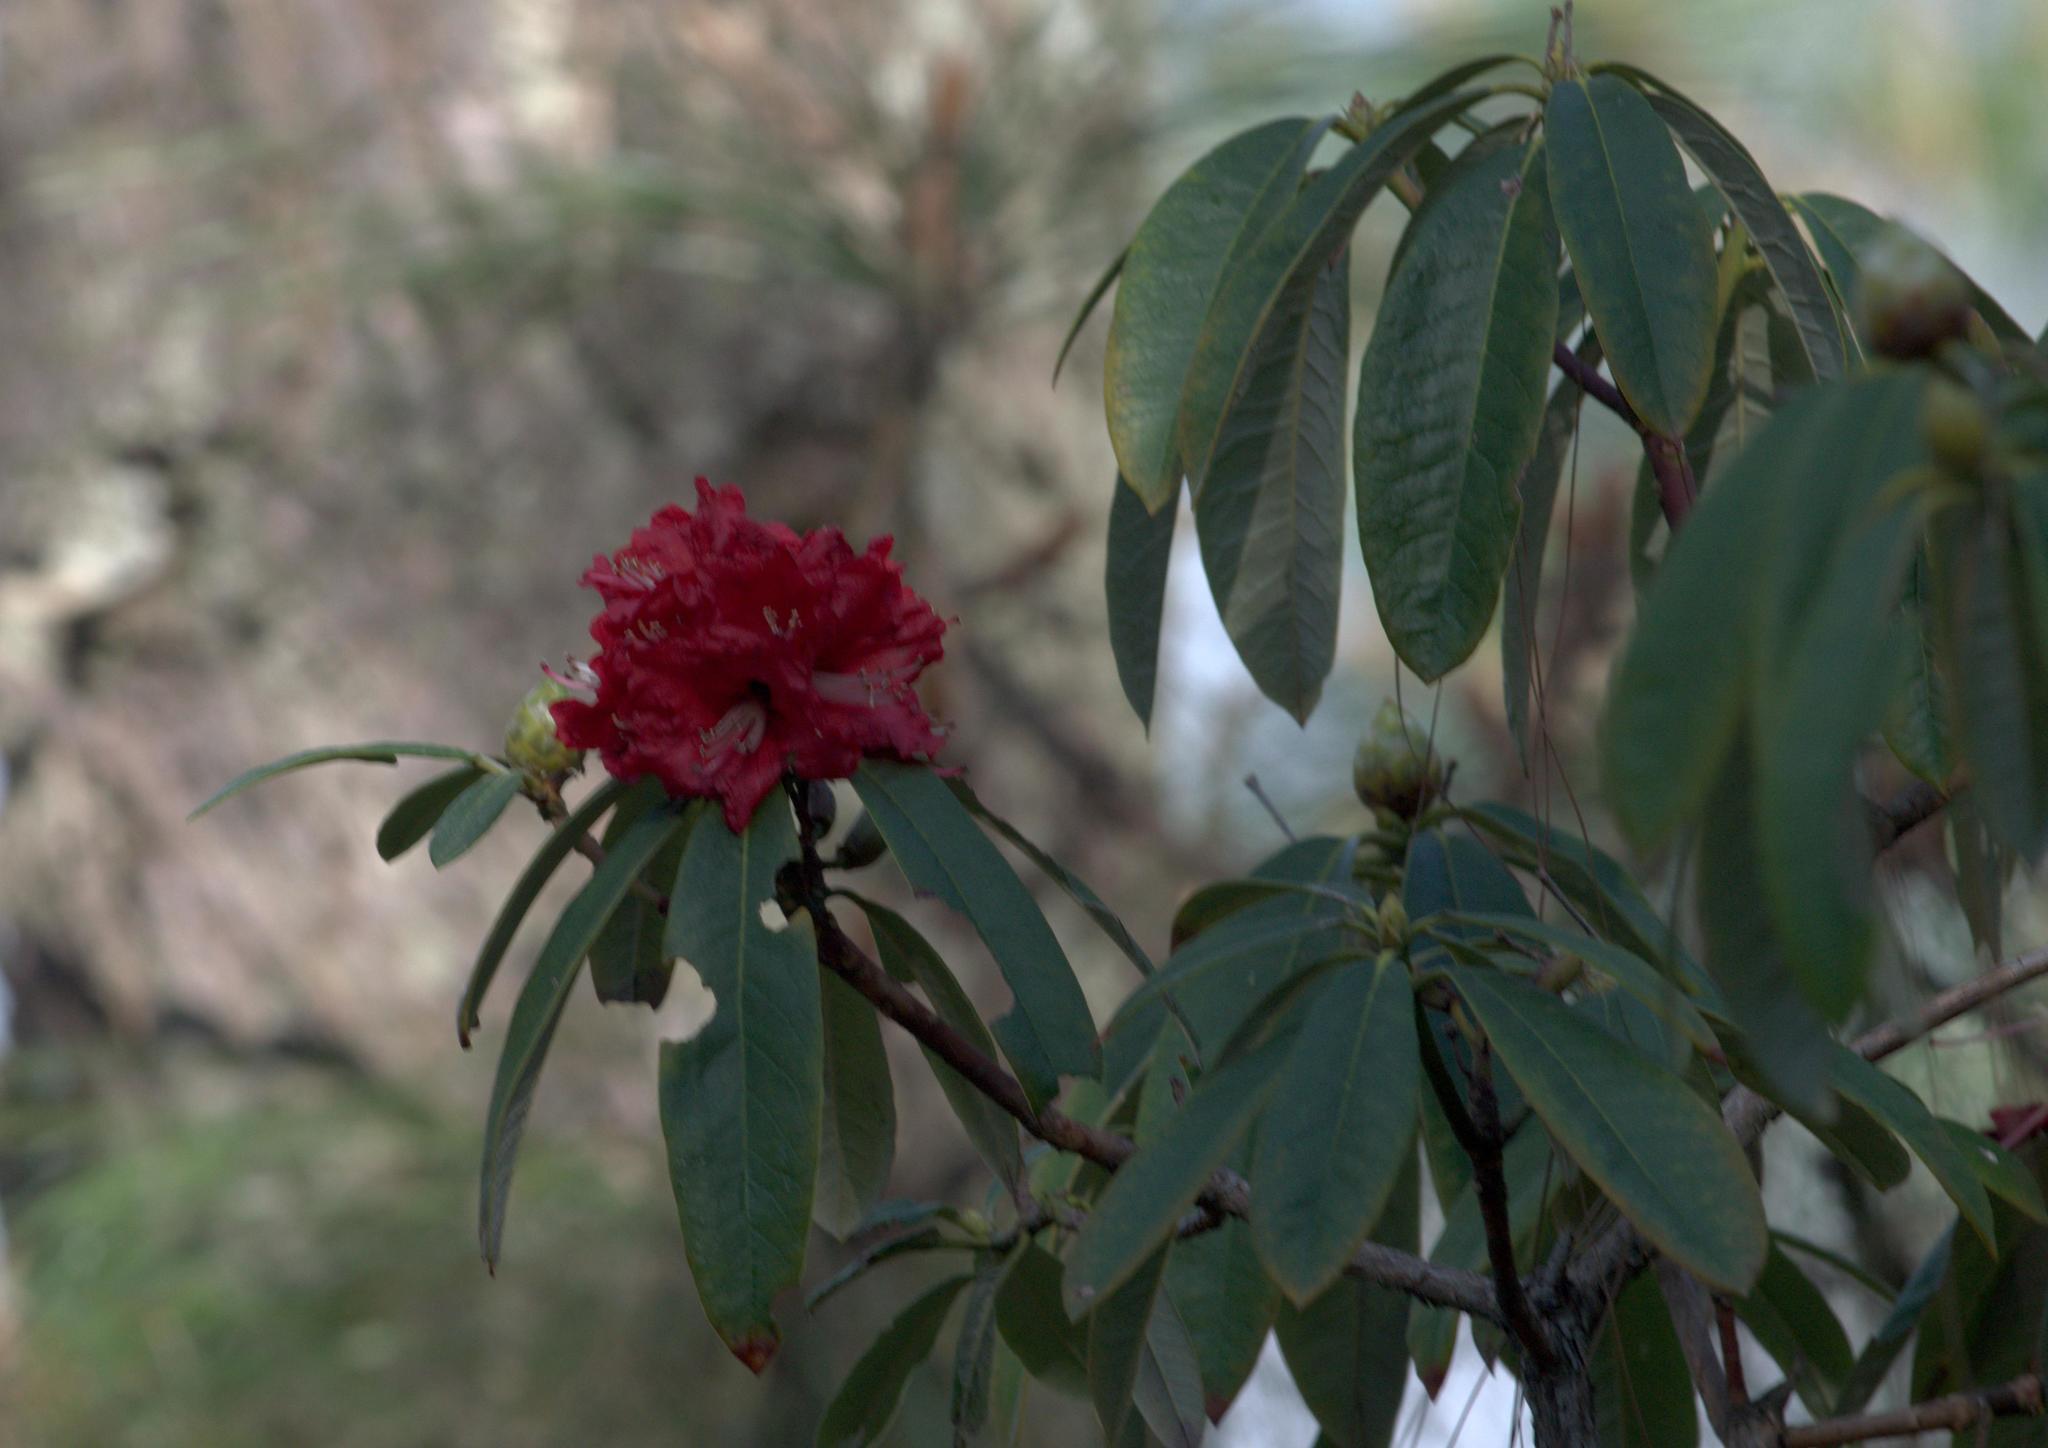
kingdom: Plantae
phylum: Tracheophyta
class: Magnoliopsida
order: Ericales
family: Ericaceae
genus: Rhododendron
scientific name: Rhododendron arboreum
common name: Tree rhododendron
